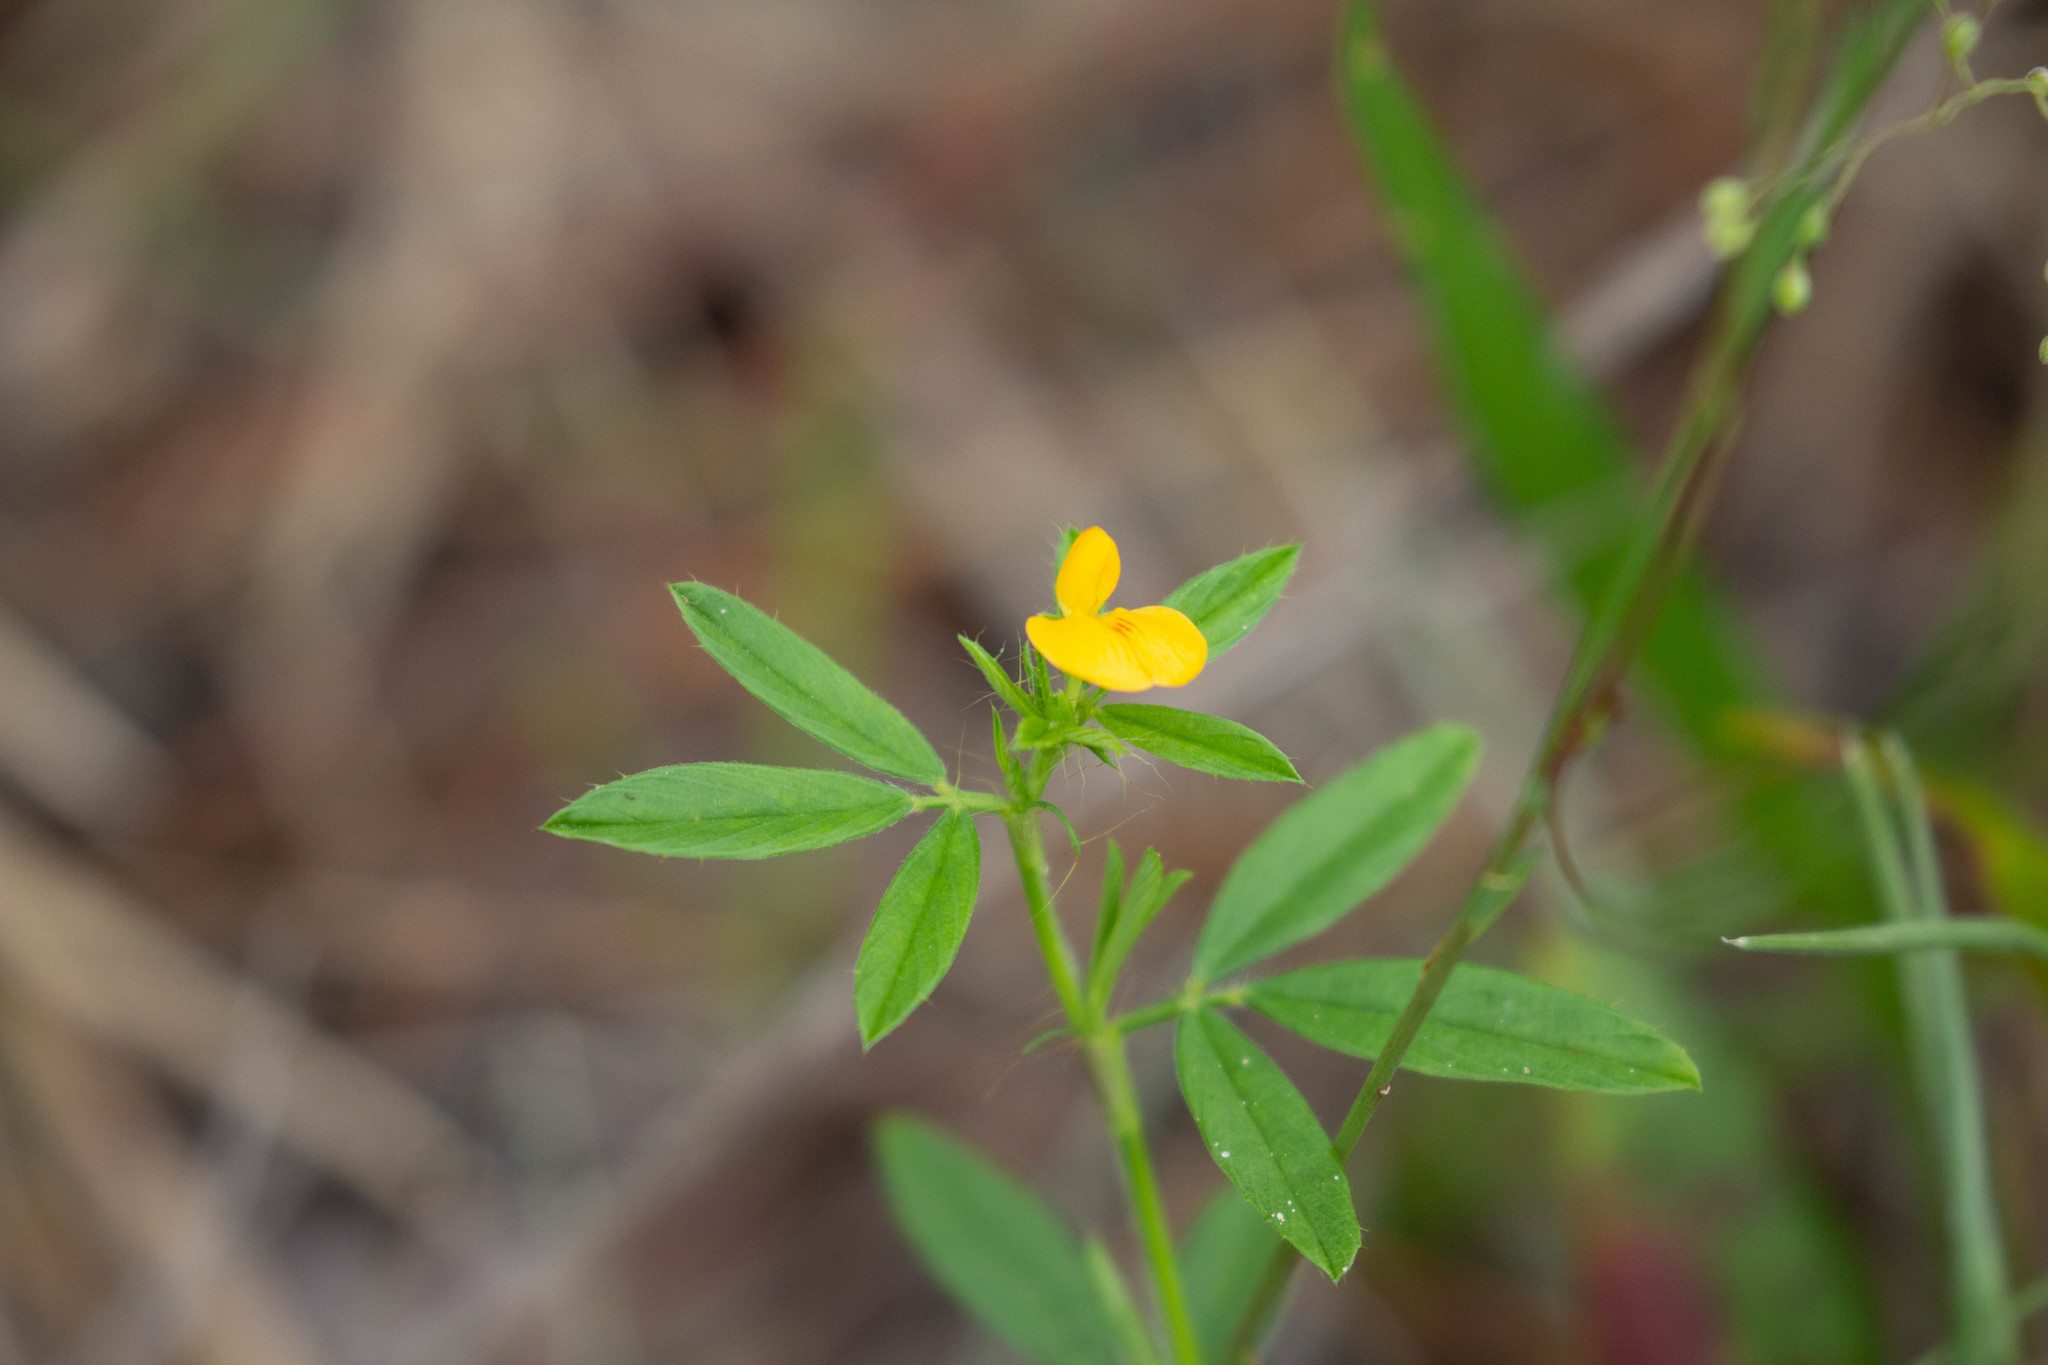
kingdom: Plantae
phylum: Tracheophyta
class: Magnoliopsida
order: Fabales
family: Fabaceae
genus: Stylosanthes
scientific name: Stylosanthes biflora
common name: Two-flower pencil-flower
